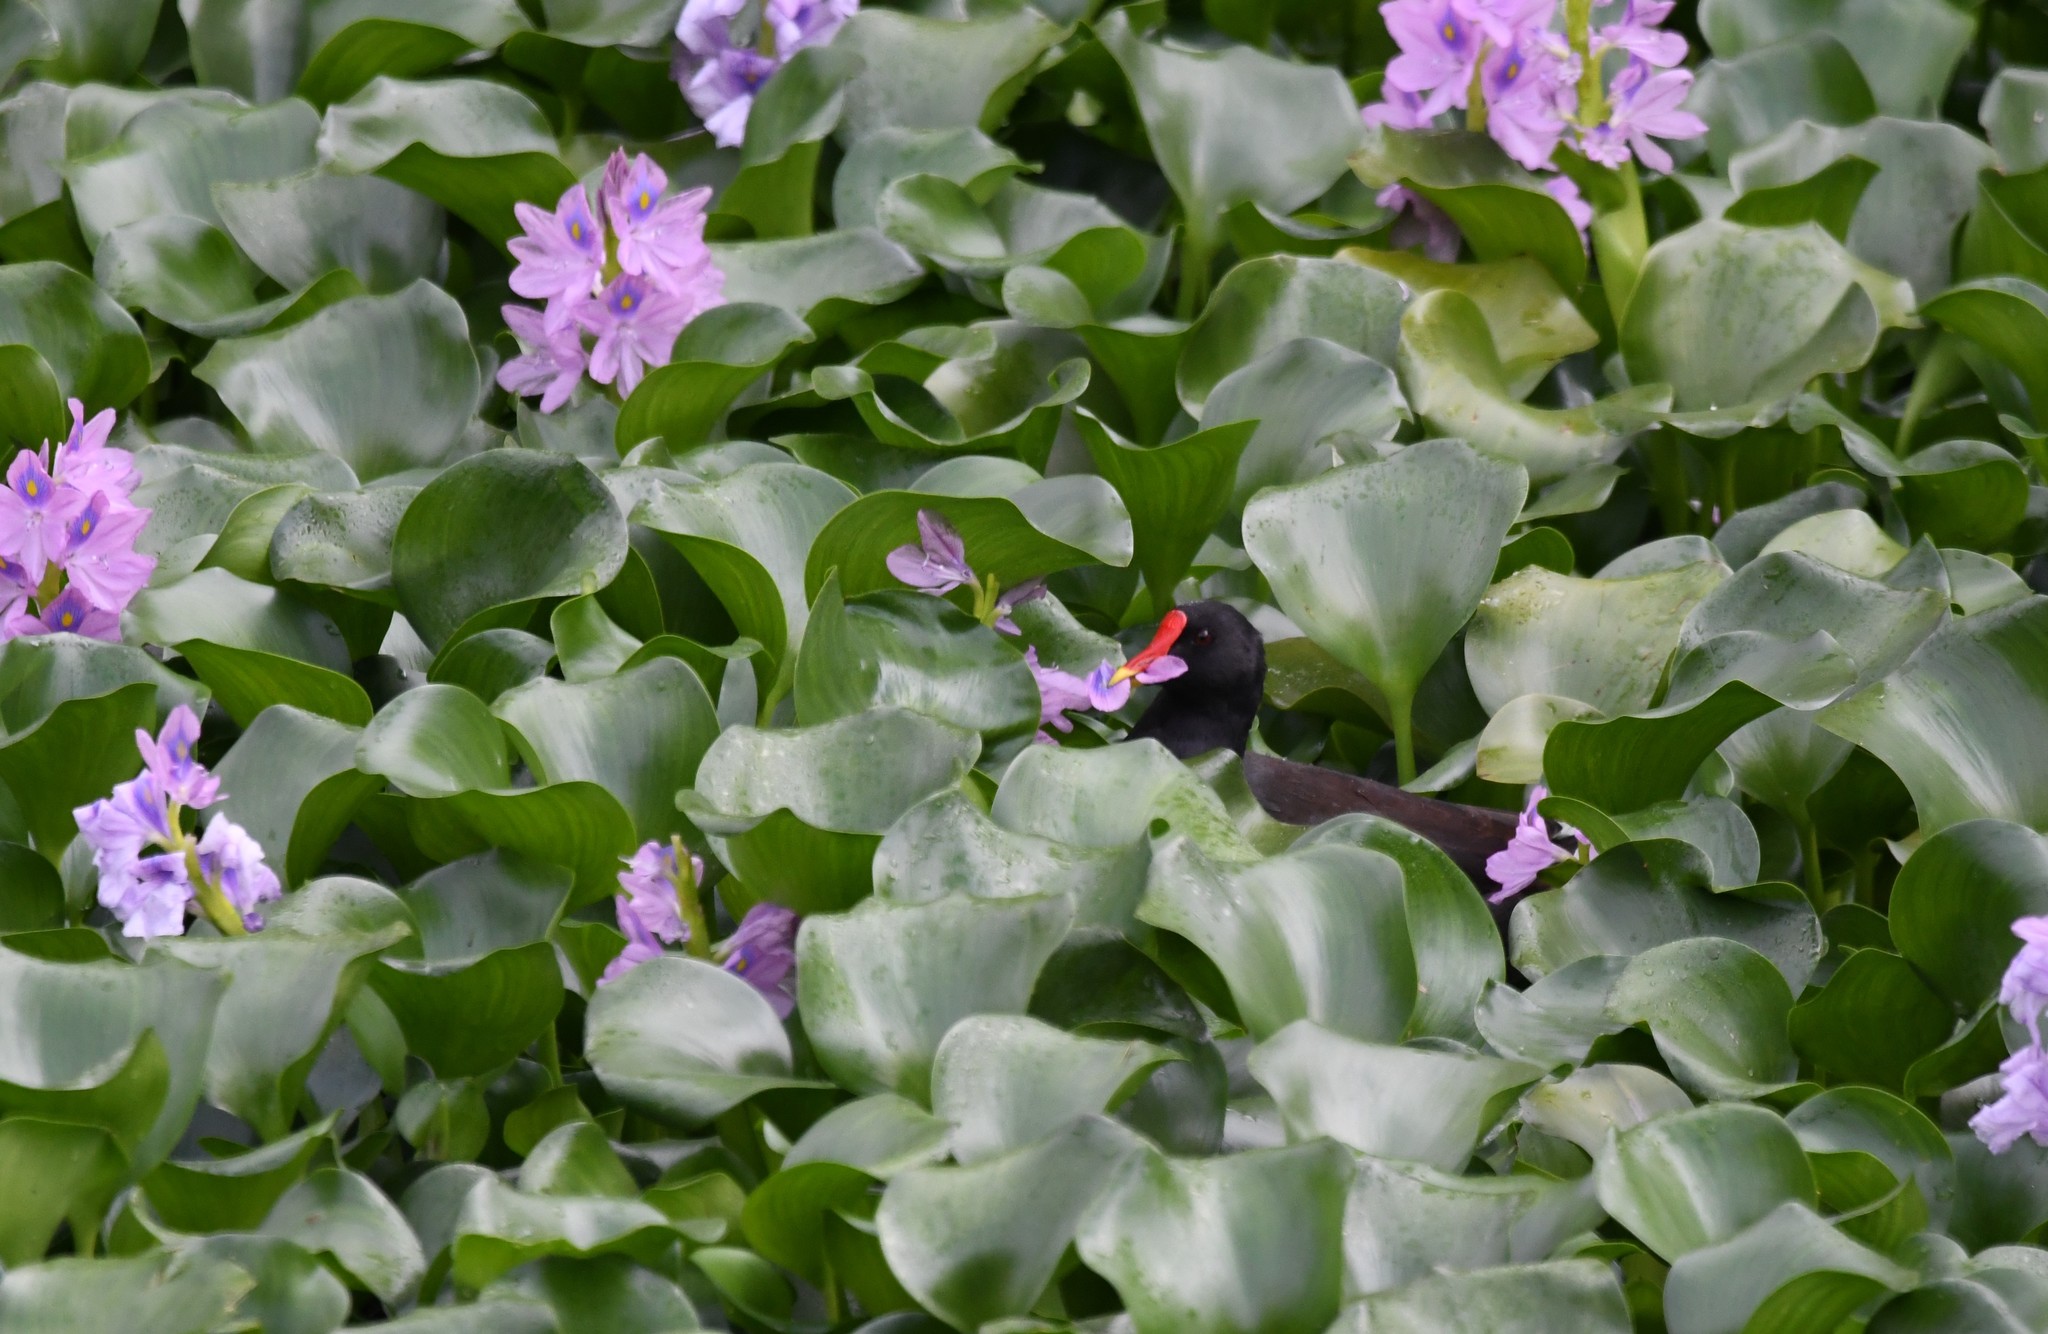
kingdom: Animalia
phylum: Chordata
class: Aves
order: Gruiformes
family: Rallidae
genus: Gallinula
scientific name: Gallinula chloropus
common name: Common moorhen
